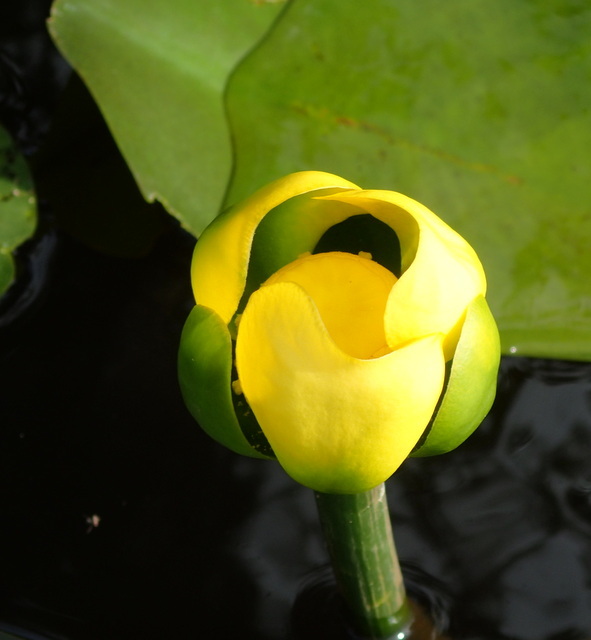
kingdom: Plantae
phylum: Tracheophyta
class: Magnoliopsida
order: Nymphaeales
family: Nymphaeaceae
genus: Nuphar
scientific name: Nuphar advena
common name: Spatter-dock
